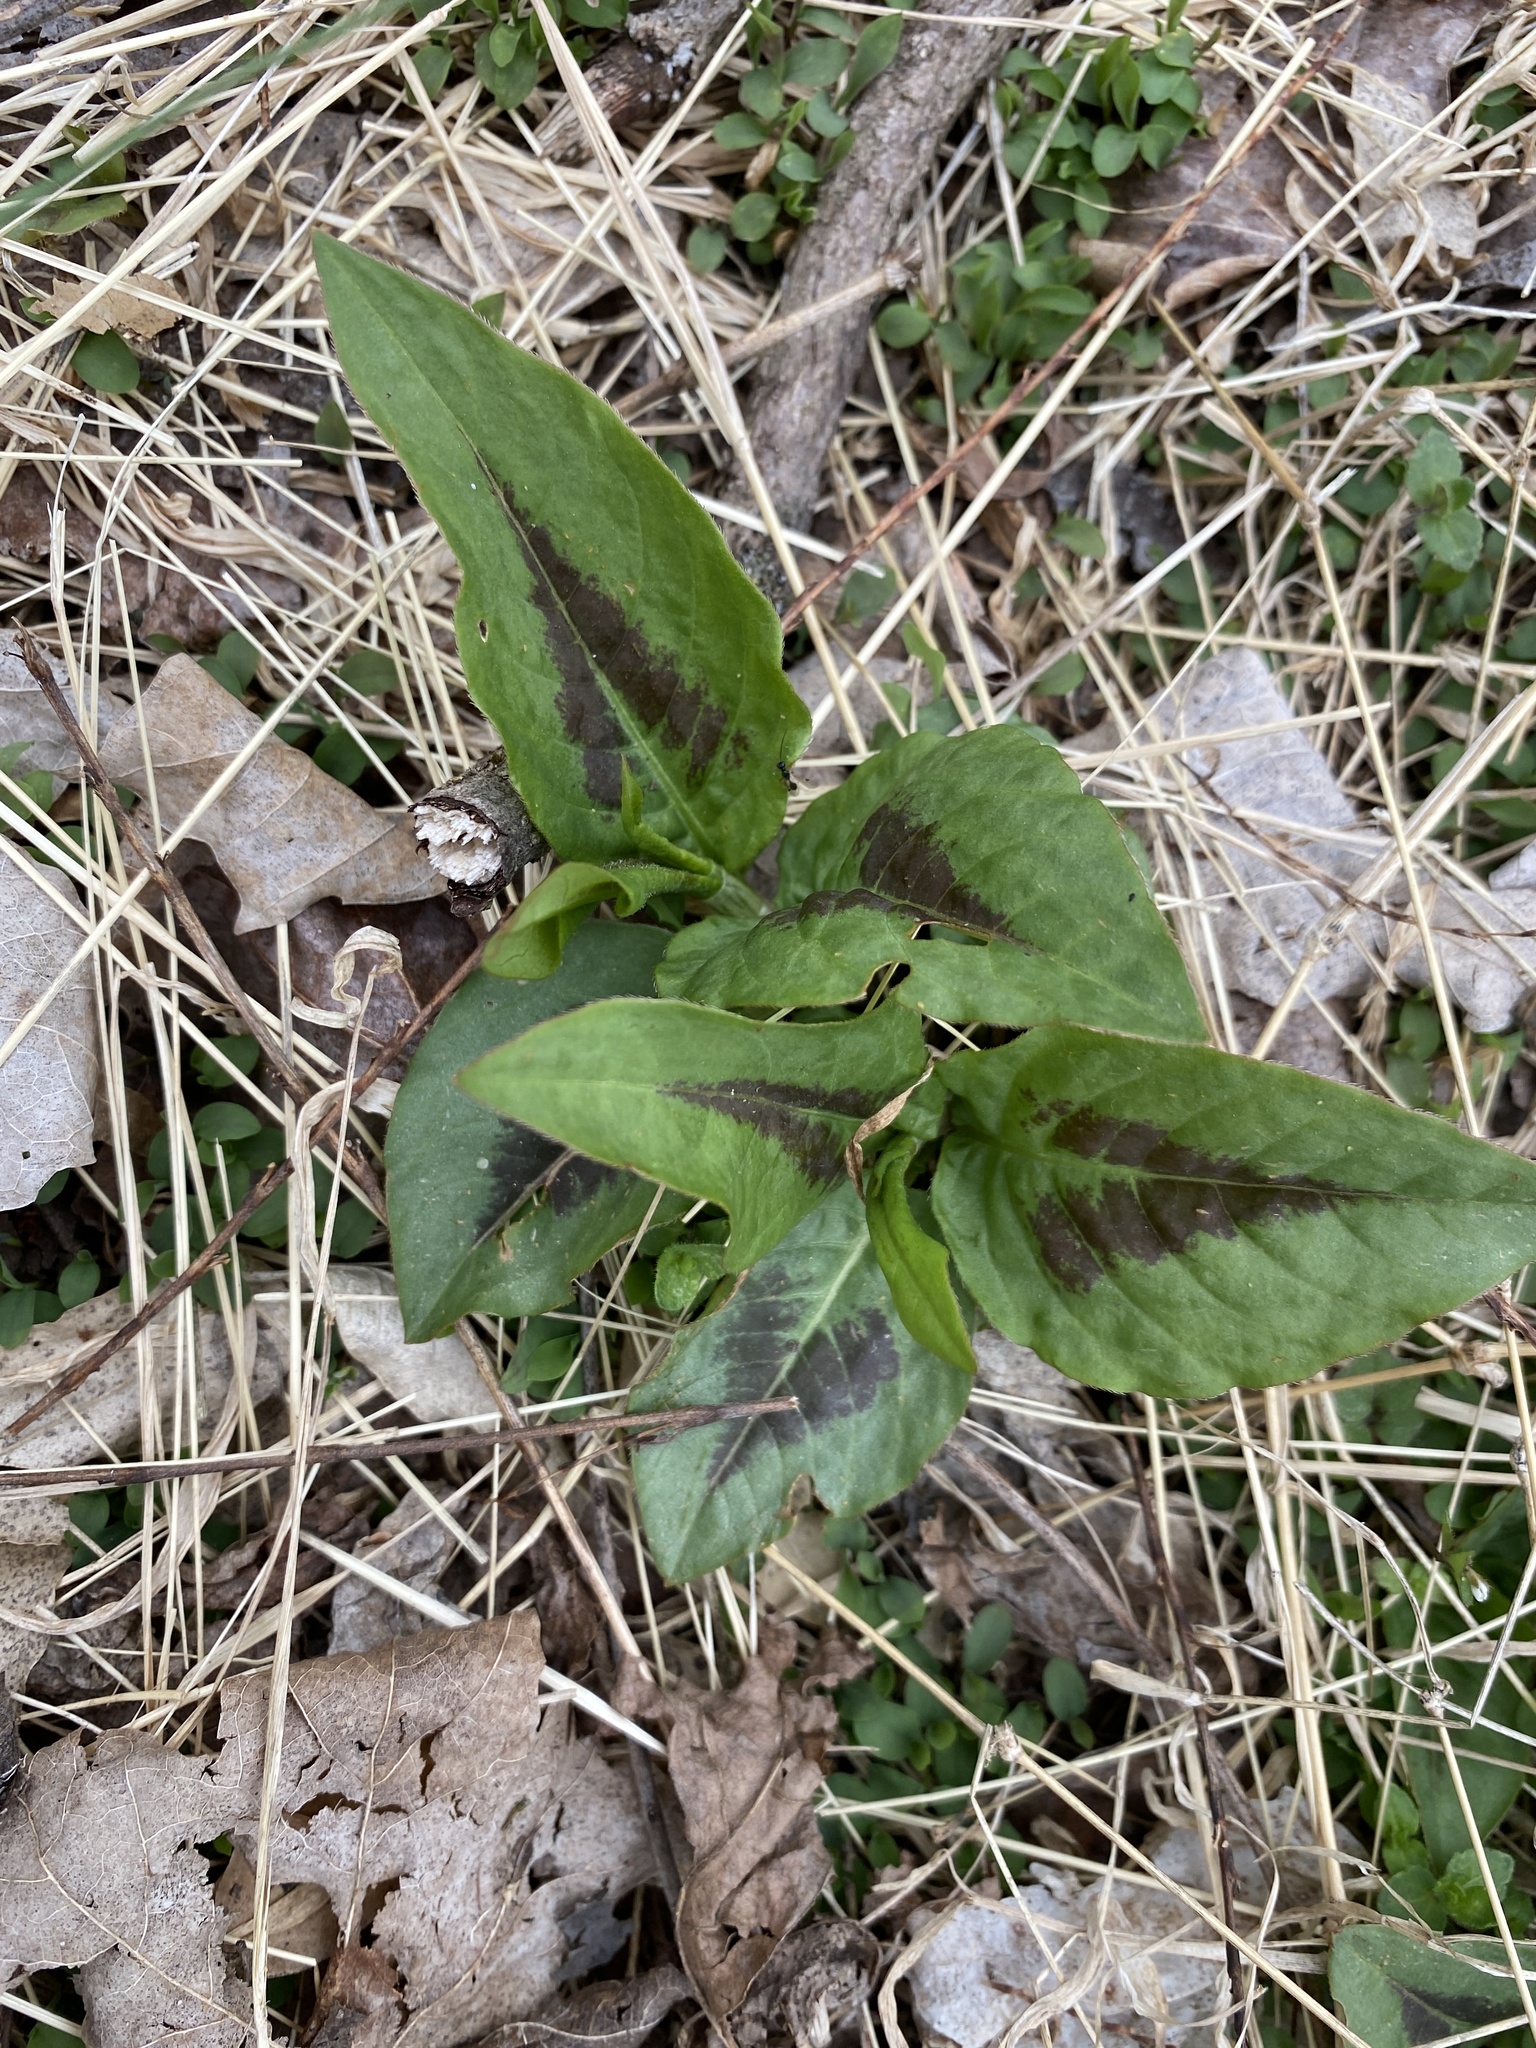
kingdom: Plantae
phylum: Tracheophyta
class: Magnoliopsida
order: Caryophyllales
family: Polygonaceae
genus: Persicaria
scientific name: Persicaria virginiana
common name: Jumpseed
